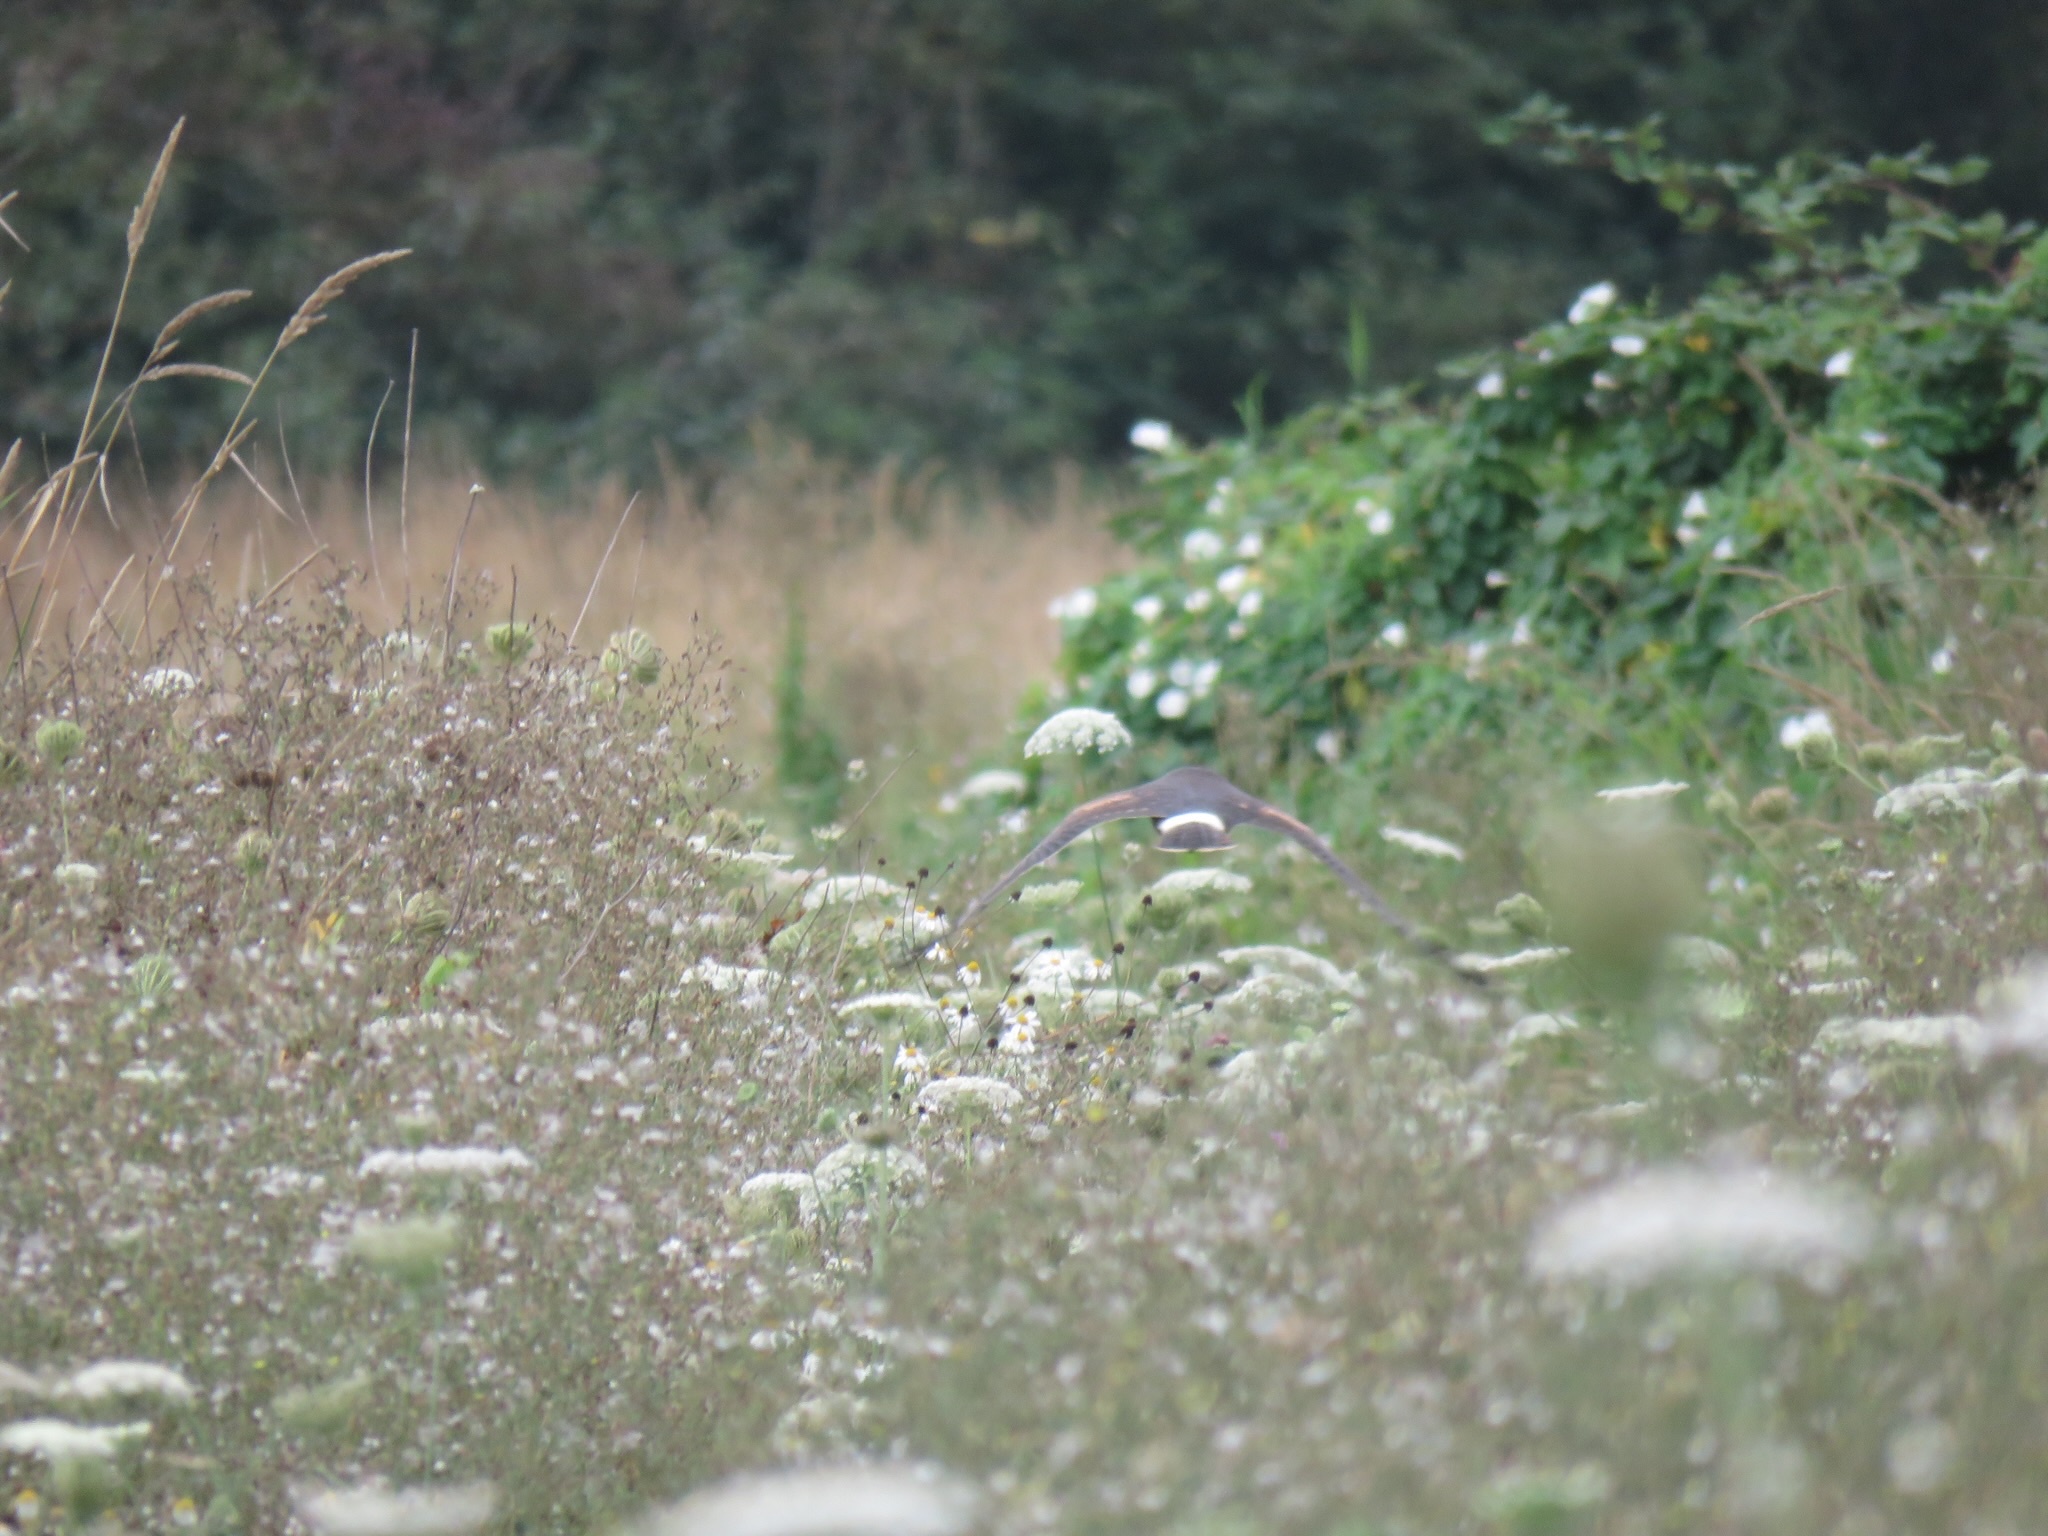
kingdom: Animalia
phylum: Chordata
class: Aves
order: Accipitriformes
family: Accipitridae
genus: Circus
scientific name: Circus cyaneus
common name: Hen harrier
